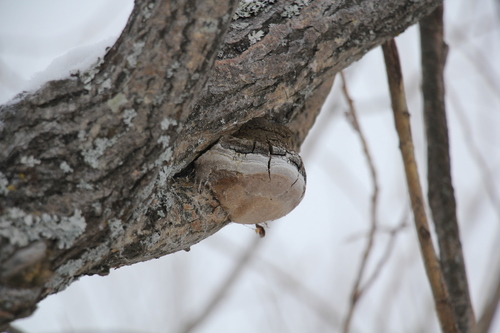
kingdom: Fungi
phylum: Basidiomycota
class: Agaricomycetes
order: Hymenochaetales
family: Hymenochaetaceae
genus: Phellinus
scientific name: Phellinus igniarius
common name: Willow bracket
